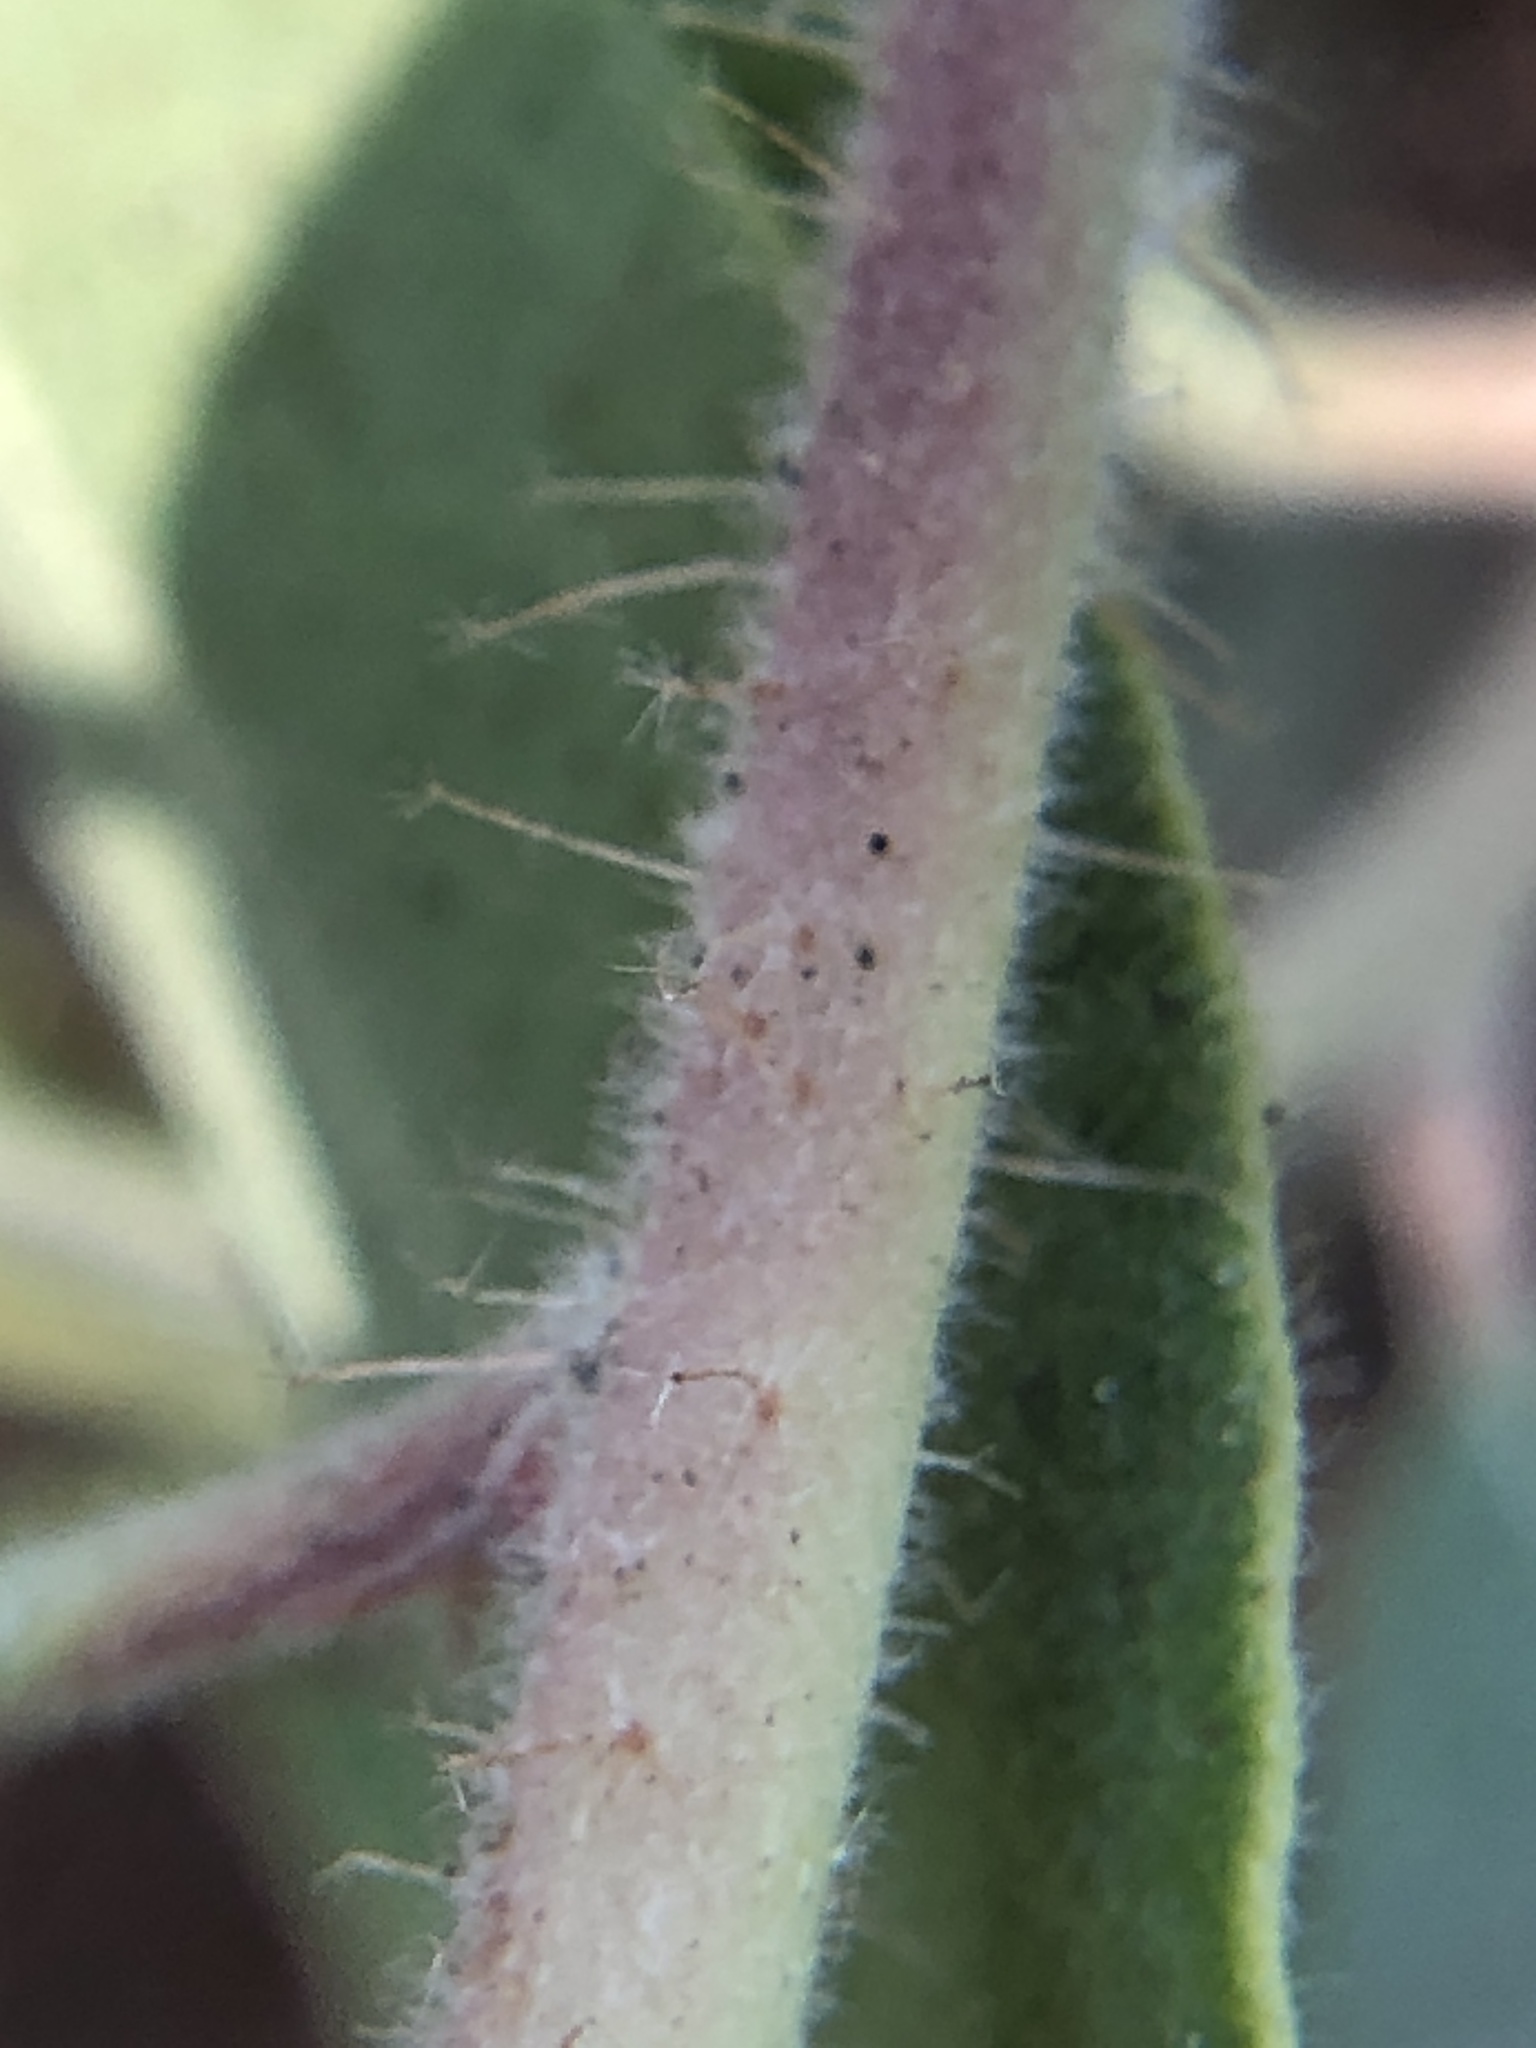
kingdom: Plantae
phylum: Tracheophyta
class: Magnoliopsida
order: Ericales
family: Ericaceae
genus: Arctostaphylos
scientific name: Arctostaphylos crustacea
